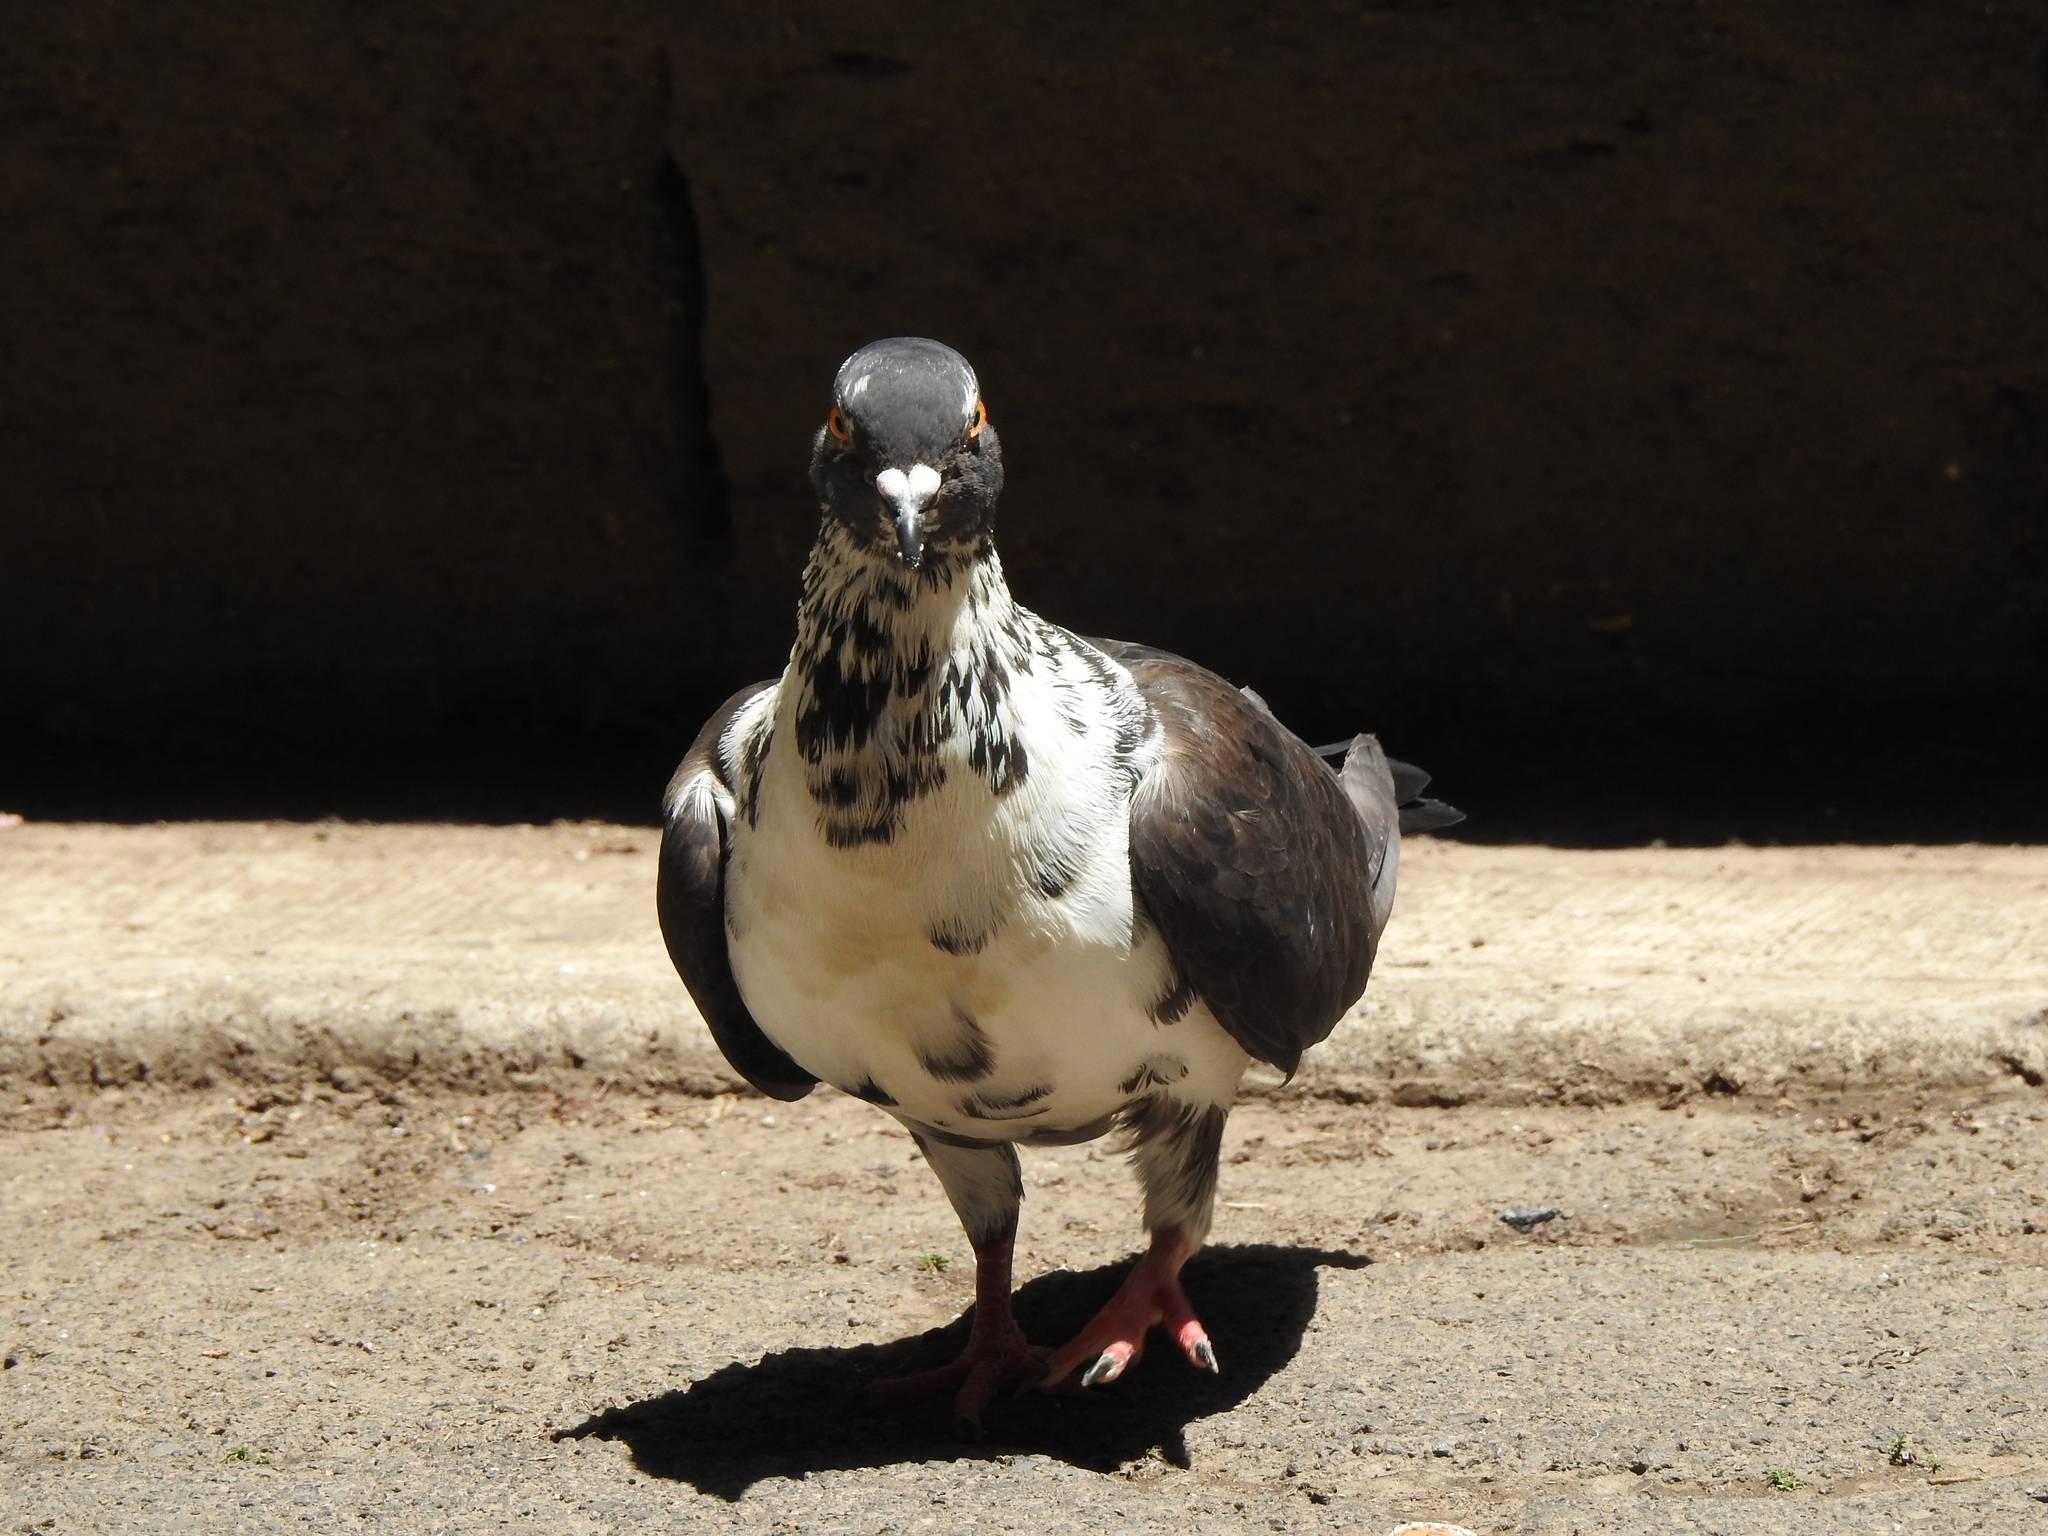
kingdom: Animalia
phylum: Chordata
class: Aves
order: Columbiformes
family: Columbidae
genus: Columba
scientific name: Columba livia
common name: Rock pigeon
